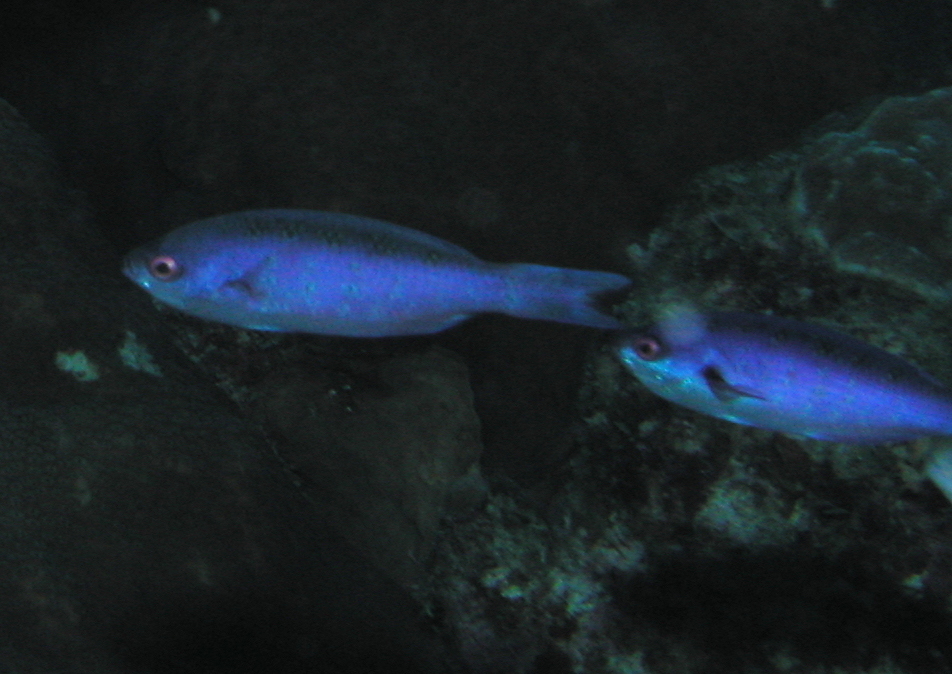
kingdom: Animalia
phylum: Chordata
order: Perciformes
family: Labridae
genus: Bodianus
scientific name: Bodianus
